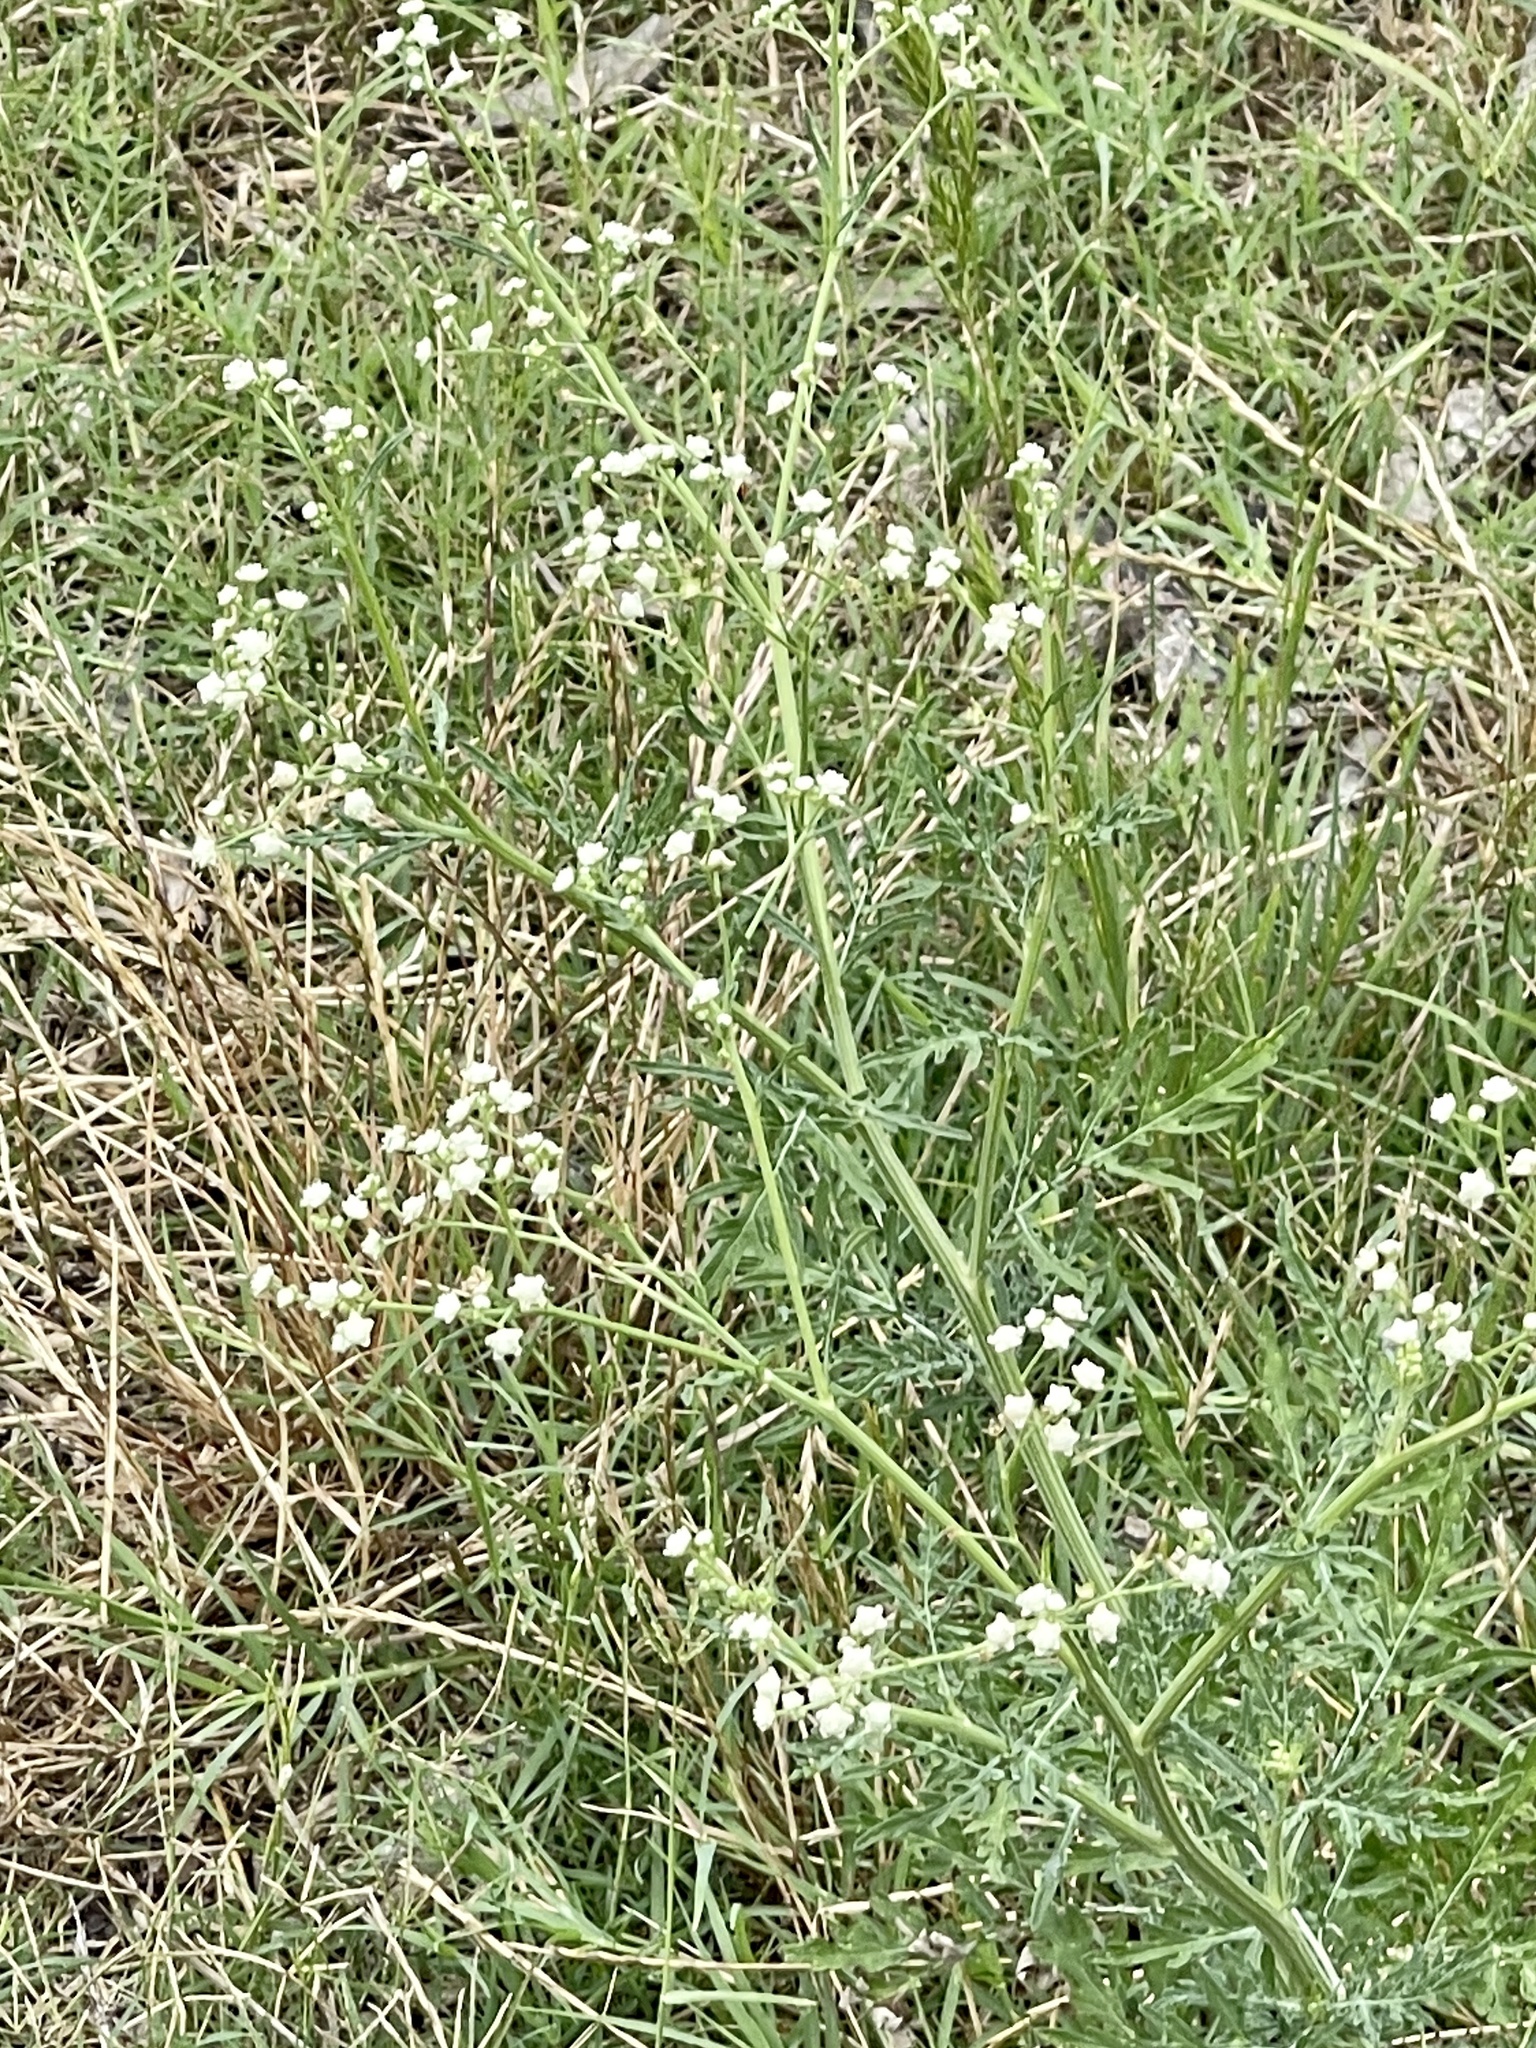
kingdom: Plantae
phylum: Tracheophyta
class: Magnoliopsida
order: Asterales
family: Asteraceae
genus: Parthenium
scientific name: Parthenium hysterophorus
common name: Santa maria feverfew
